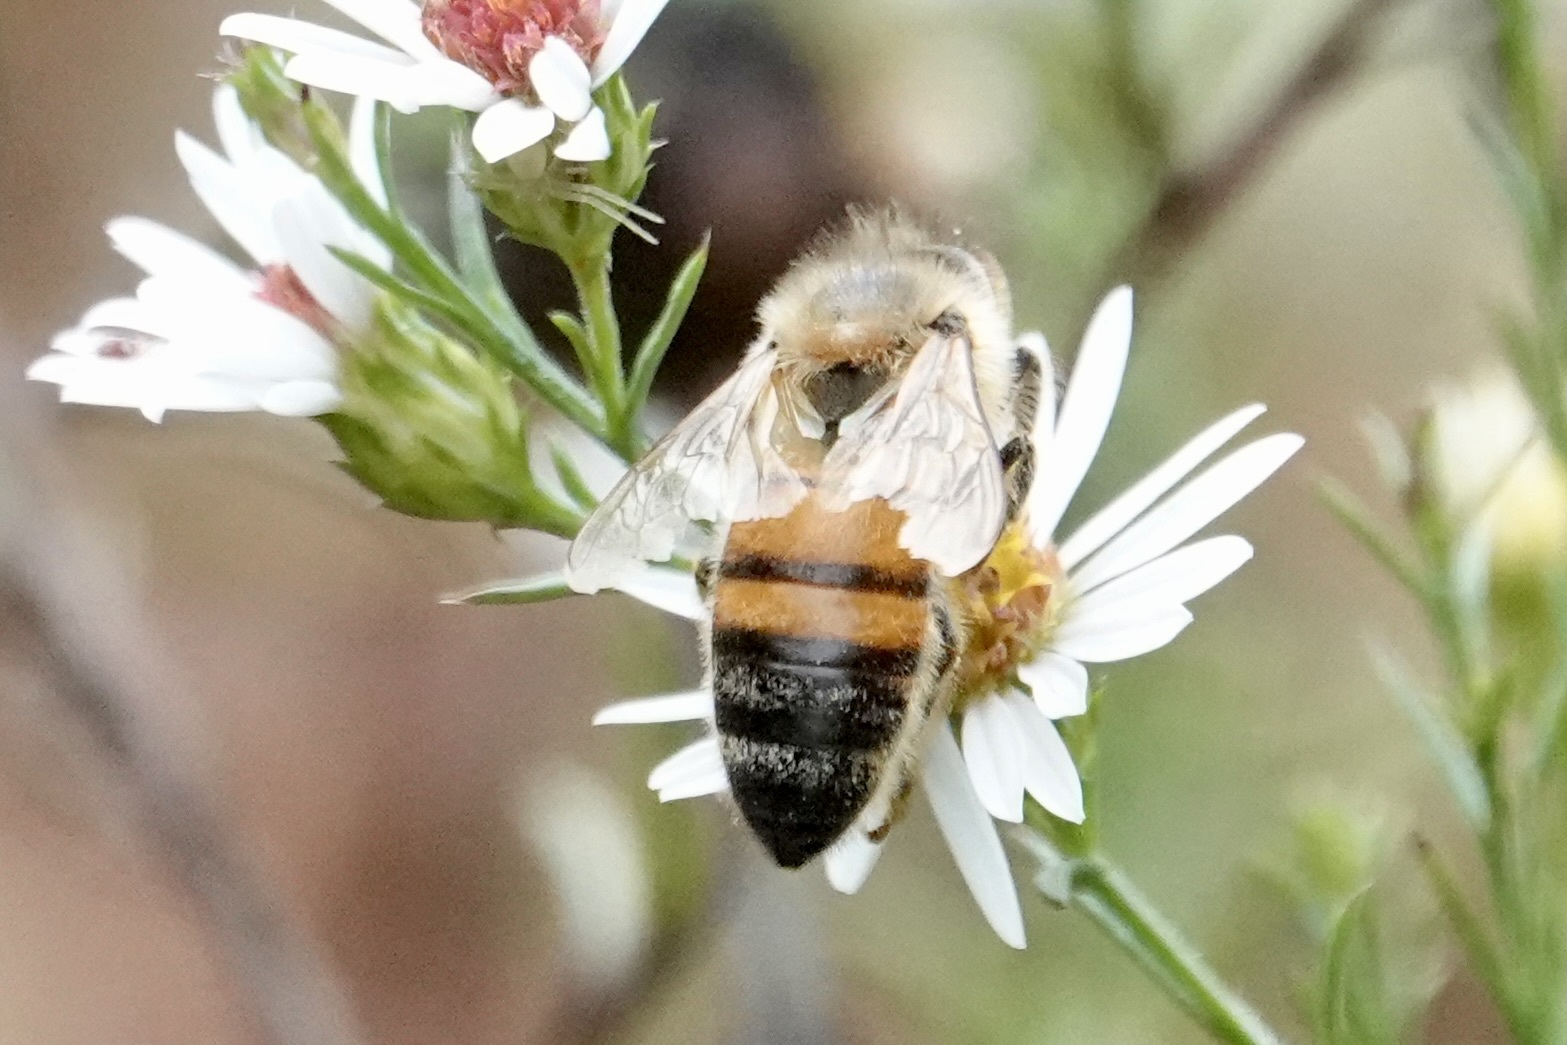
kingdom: Animalia
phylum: Arthropoda
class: Insecta
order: Hymenoptera
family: Apidae
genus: Apis
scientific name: Apis mellifera
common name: Honey bee
